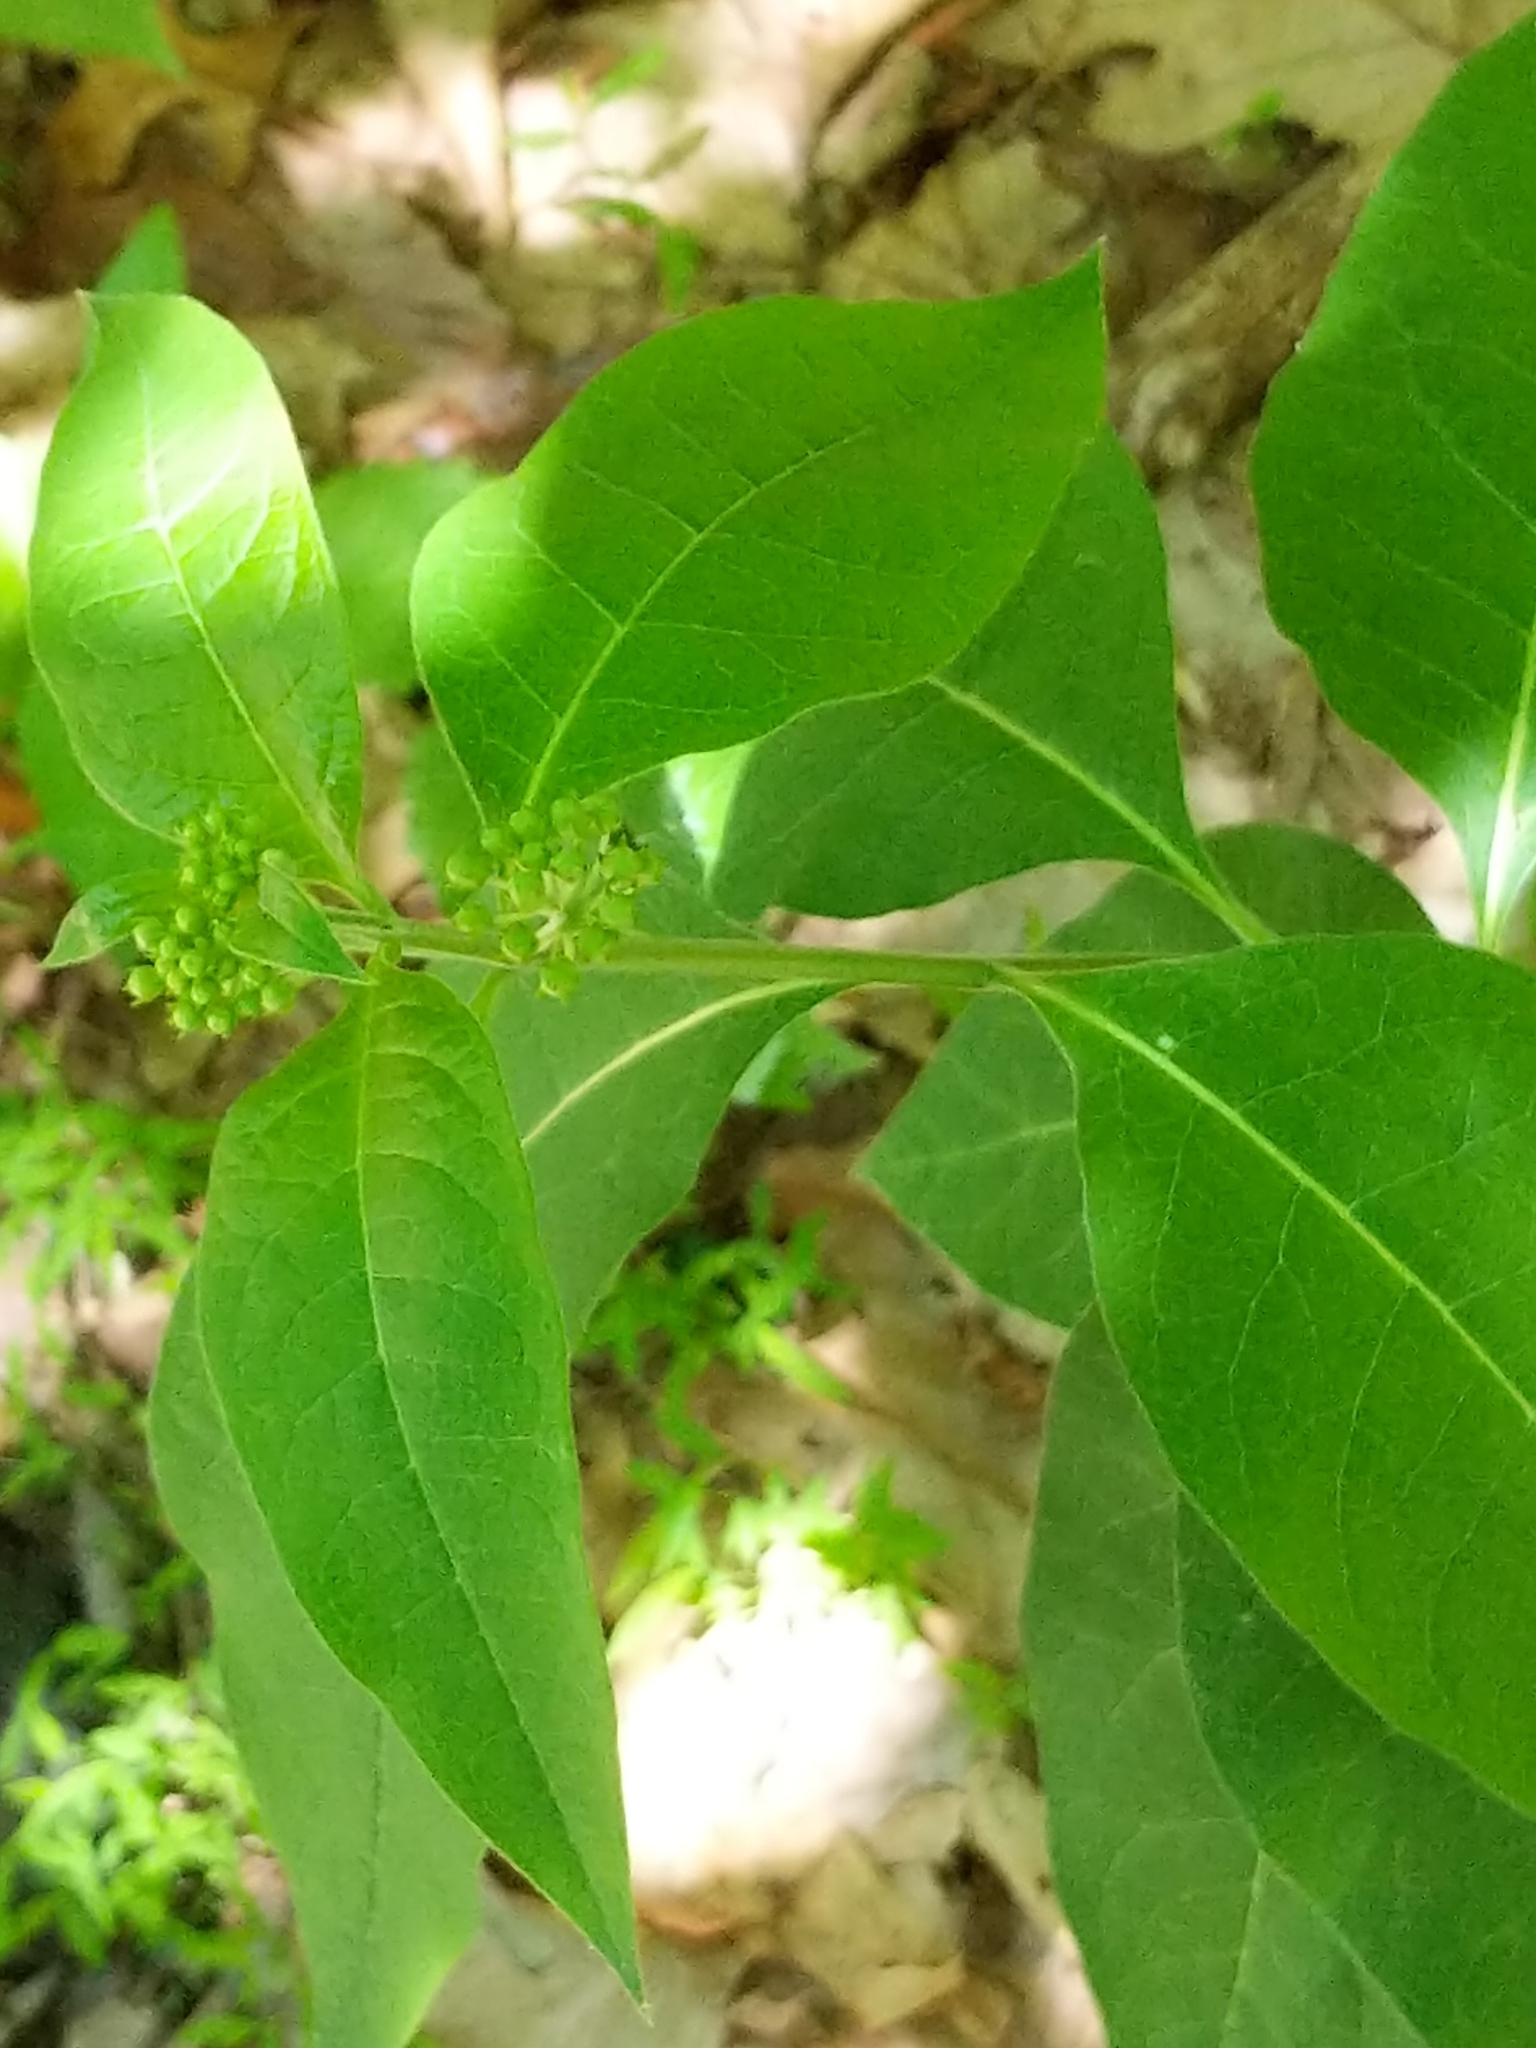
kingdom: Plantae
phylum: Tracheophyta
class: Magnoliopsida
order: Gentianales
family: Apocynaceae
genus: Asclepias
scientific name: Asclepias exaltata
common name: Poke milkweed
